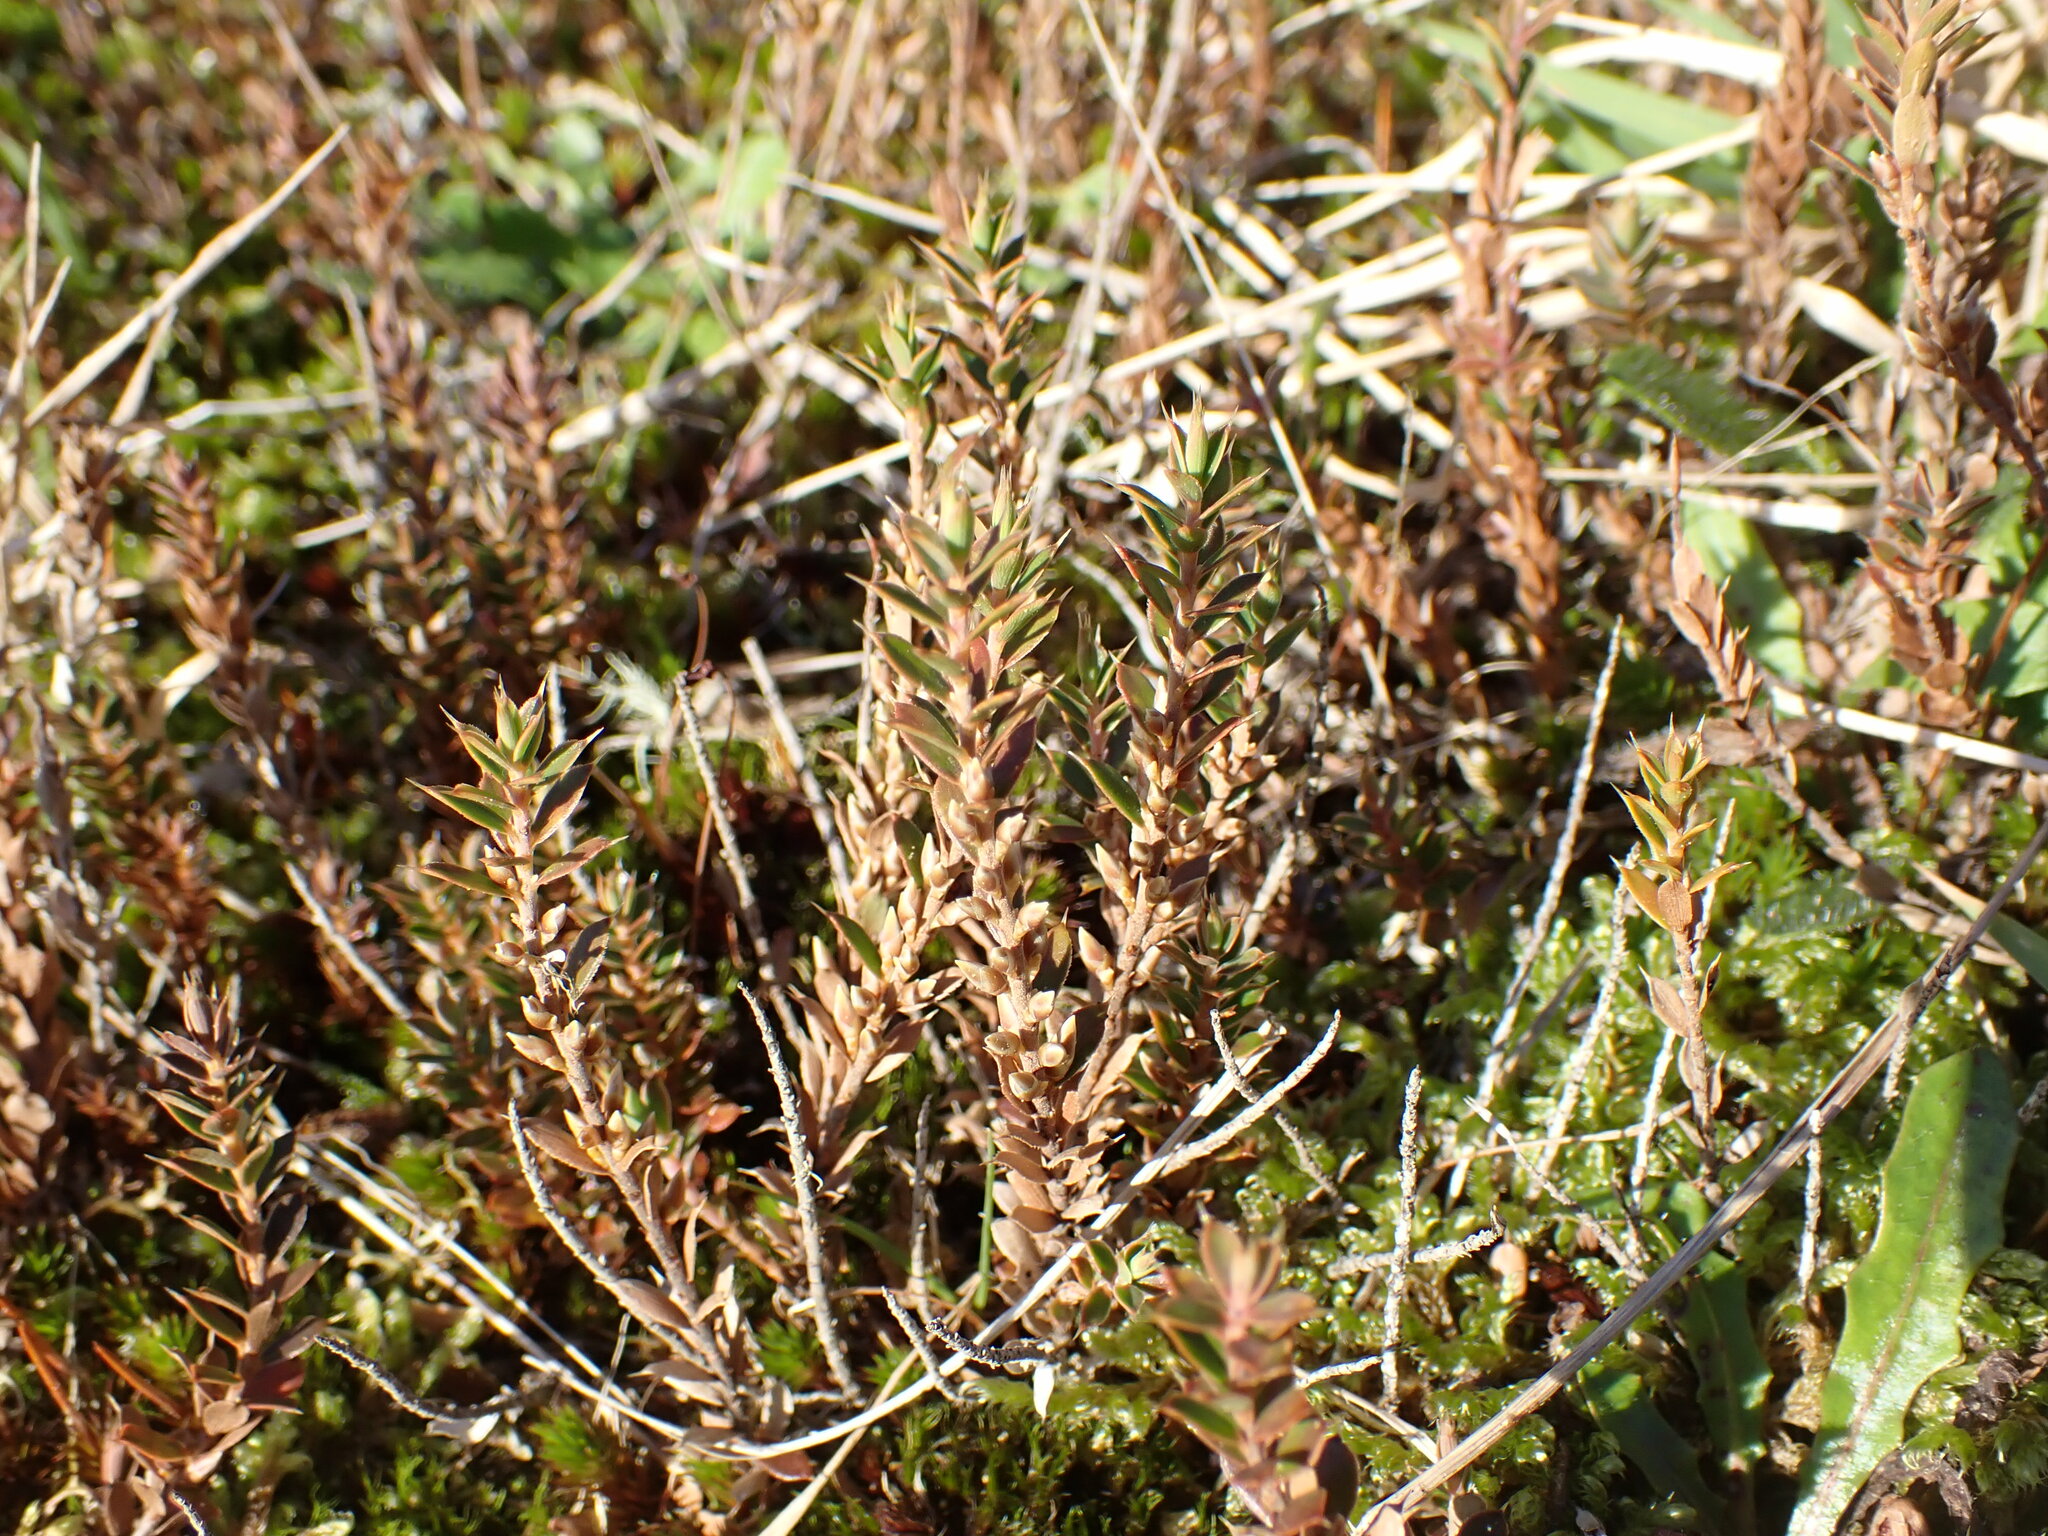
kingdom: Plantae
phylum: Tracheophyta
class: Magnoliopsida
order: Ericales
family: Ericaceae
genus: Styphelia
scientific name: Styphelia nesophila
